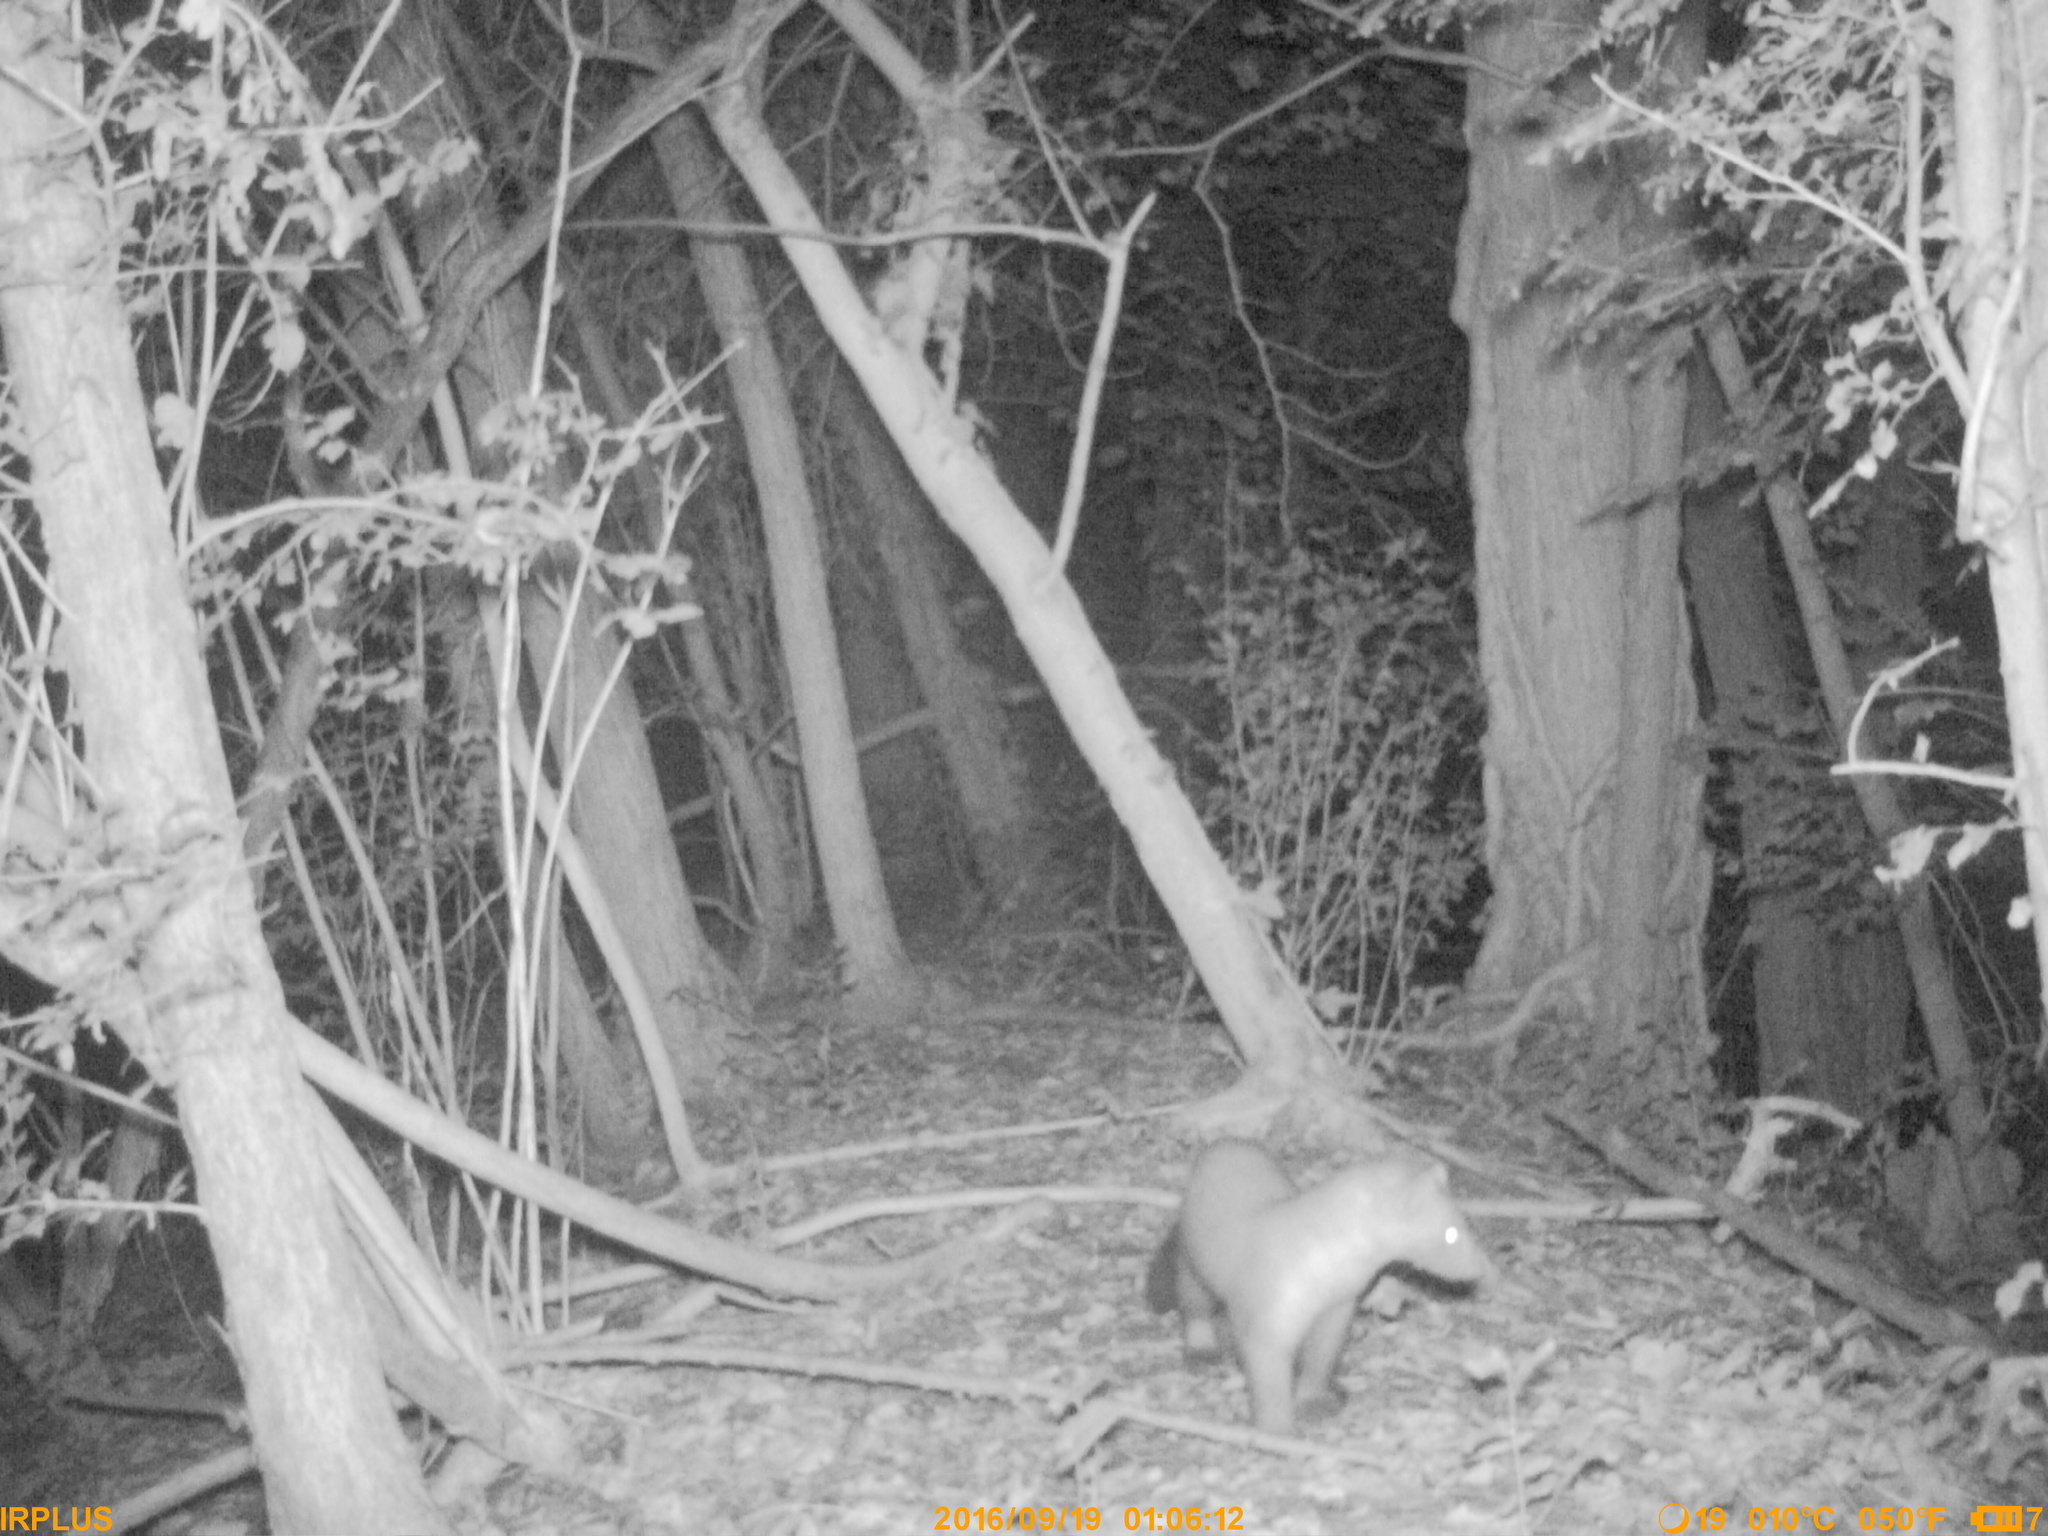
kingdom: Animalia
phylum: Chordata
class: Mammalia
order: Carnivora
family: Mustelidae
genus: Martes
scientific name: Martes foina
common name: Beech marten
